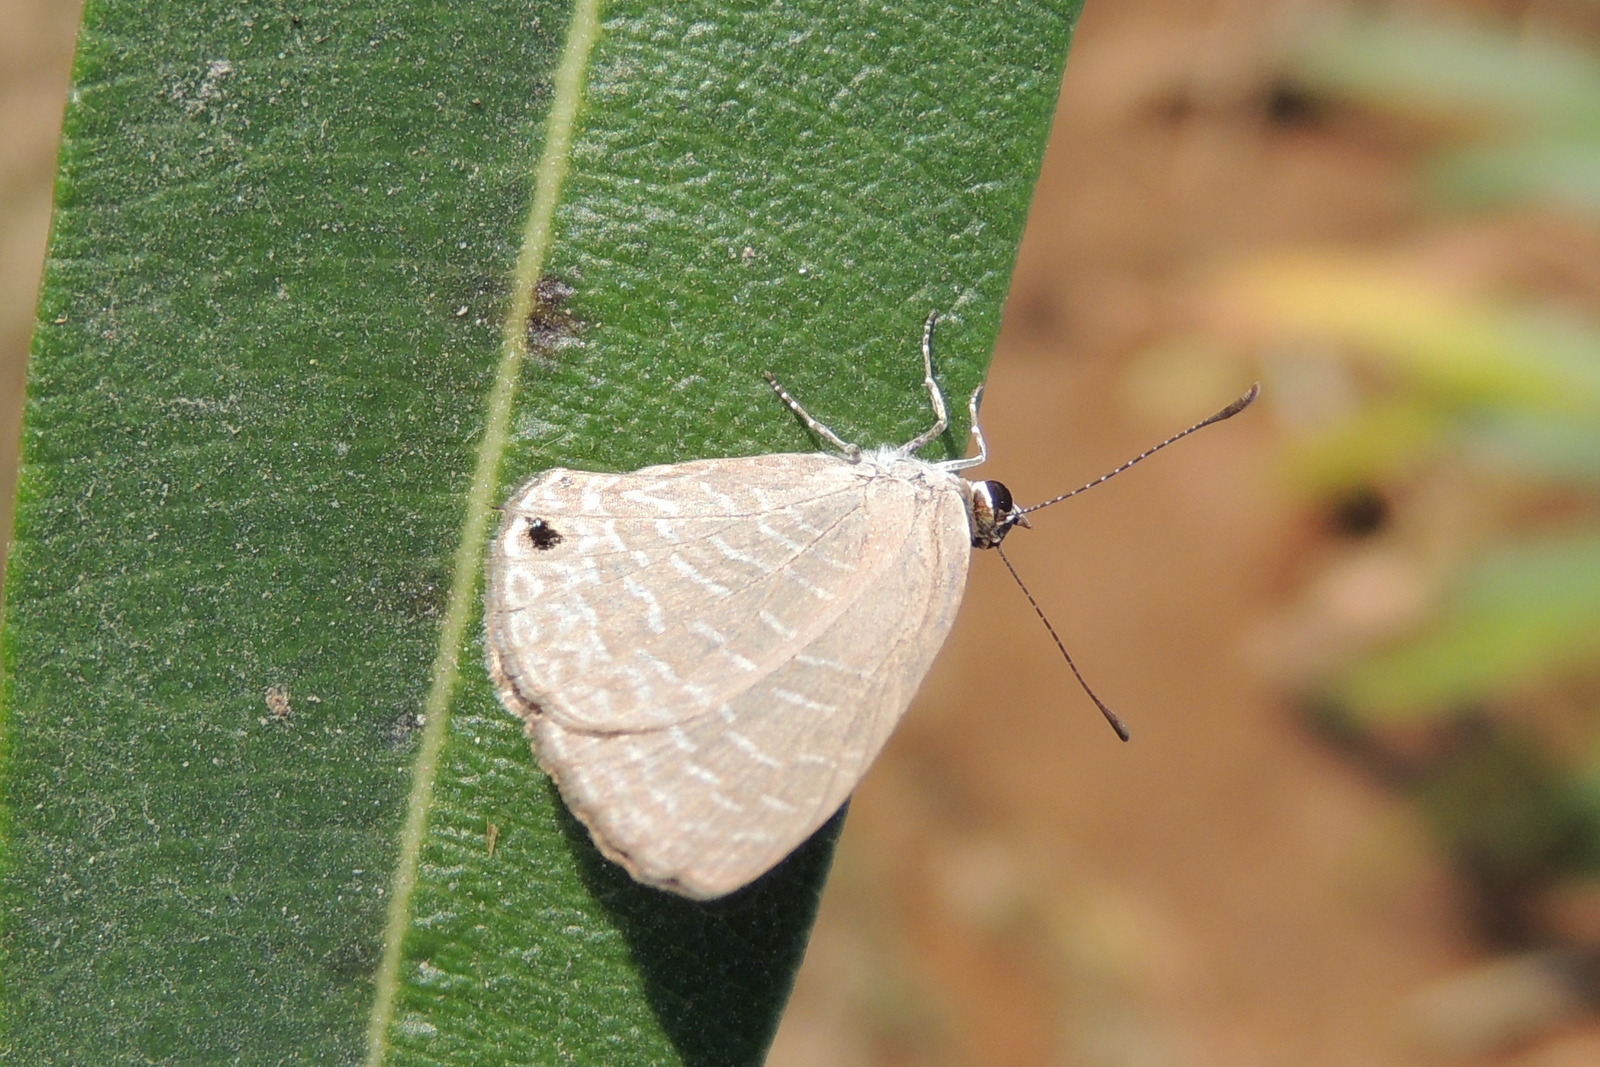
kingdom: Animalia
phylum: Arthropoda
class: Insecta
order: Lepidoptera
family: Lycaenidae
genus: Jamides
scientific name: Jamides bochus
